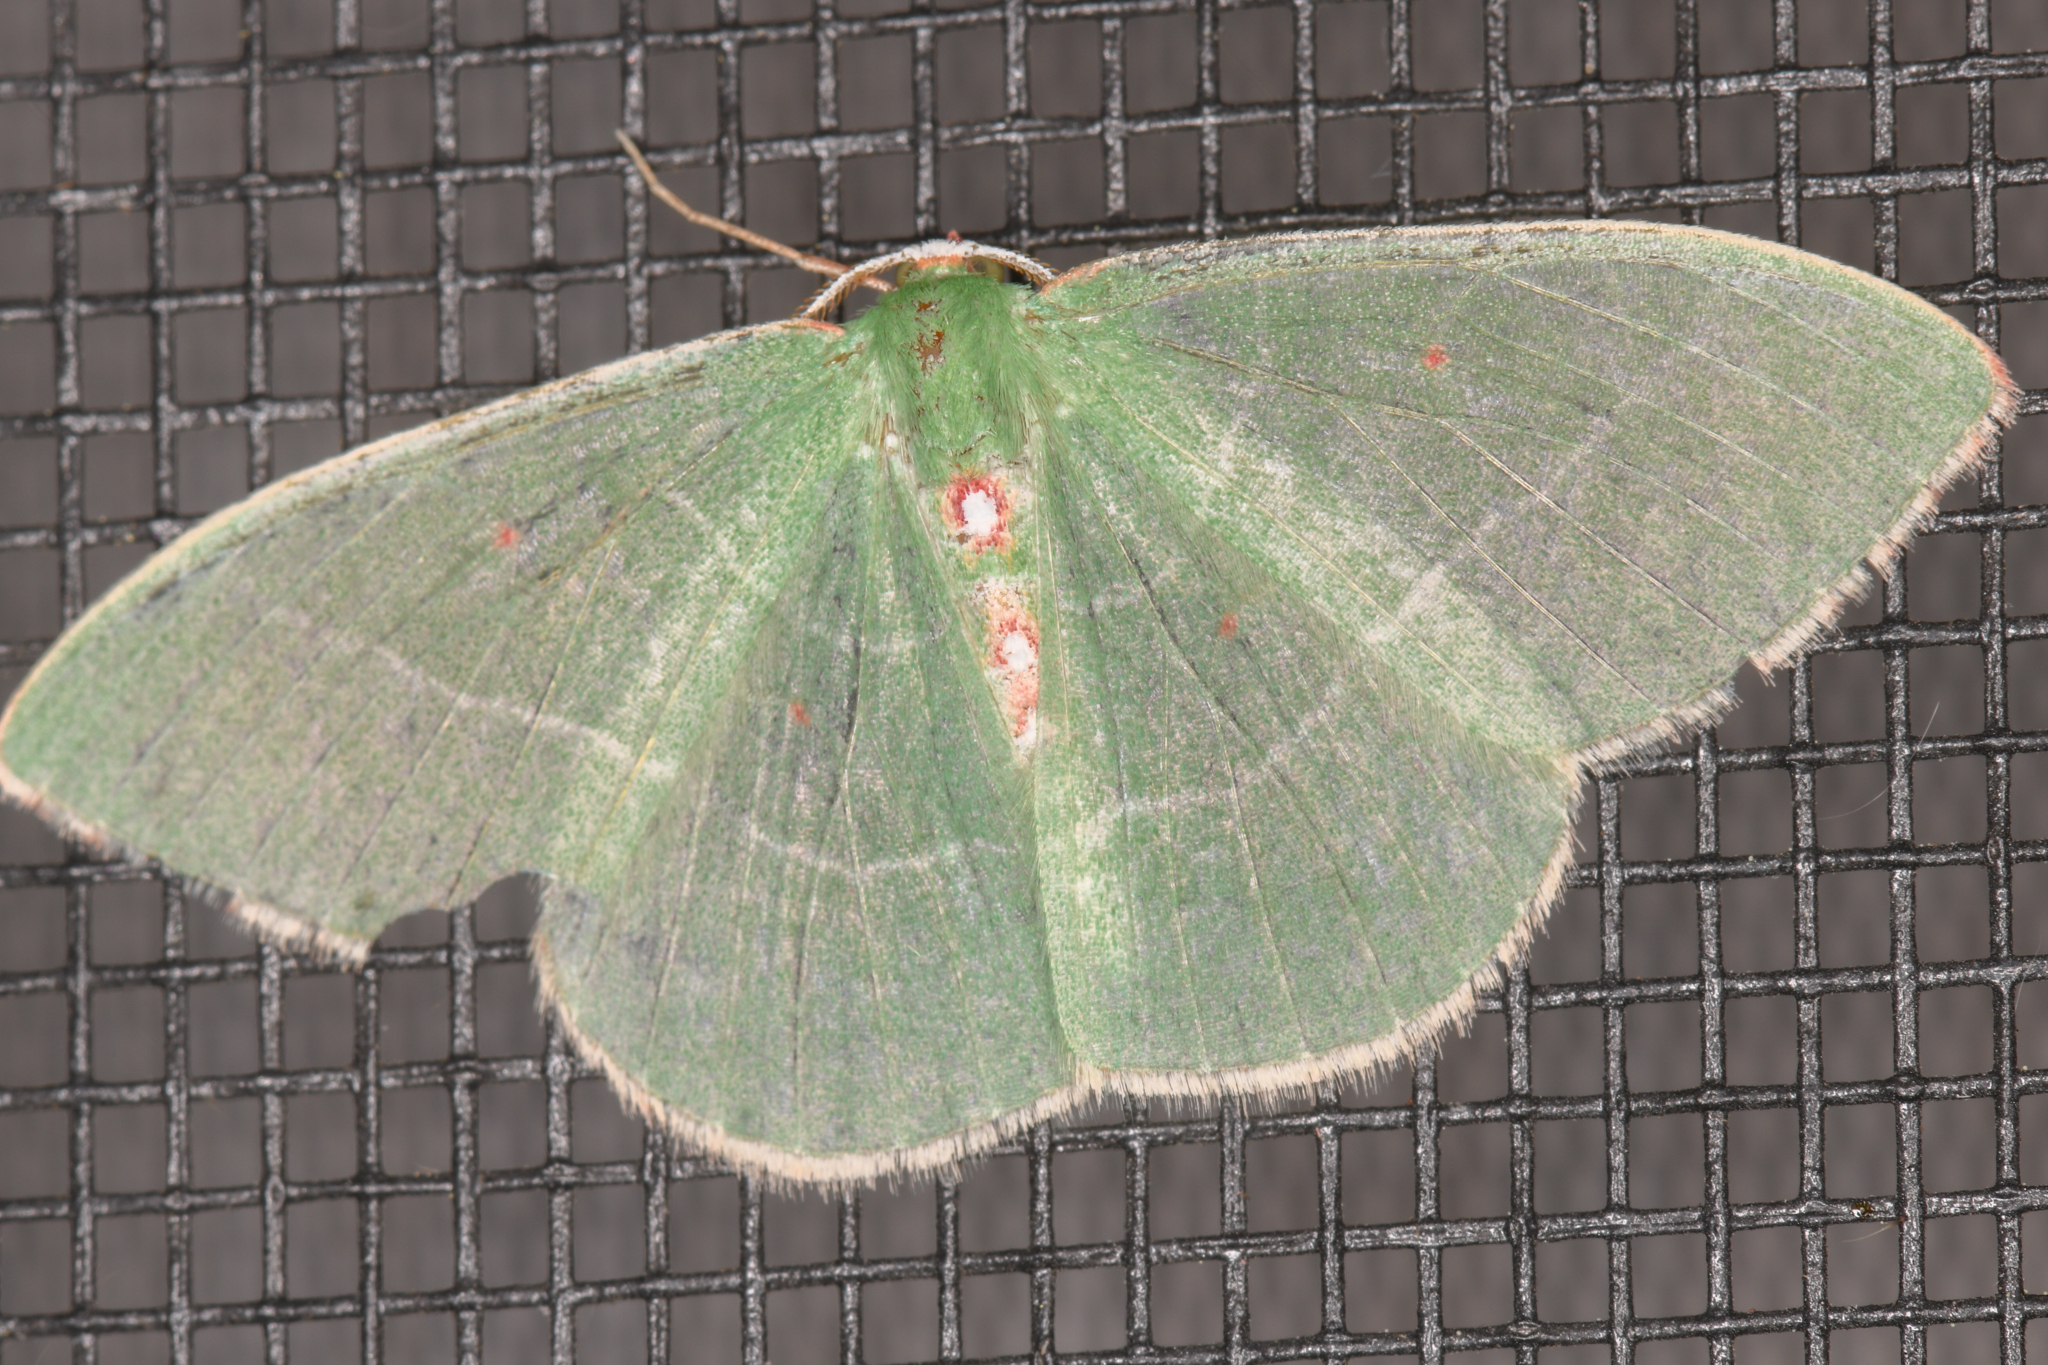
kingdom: Animalia
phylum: Arthropoda
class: Insecta
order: Lepidoptera
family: Geometridae
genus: Nemoria
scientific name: Nemoria darwiniata
